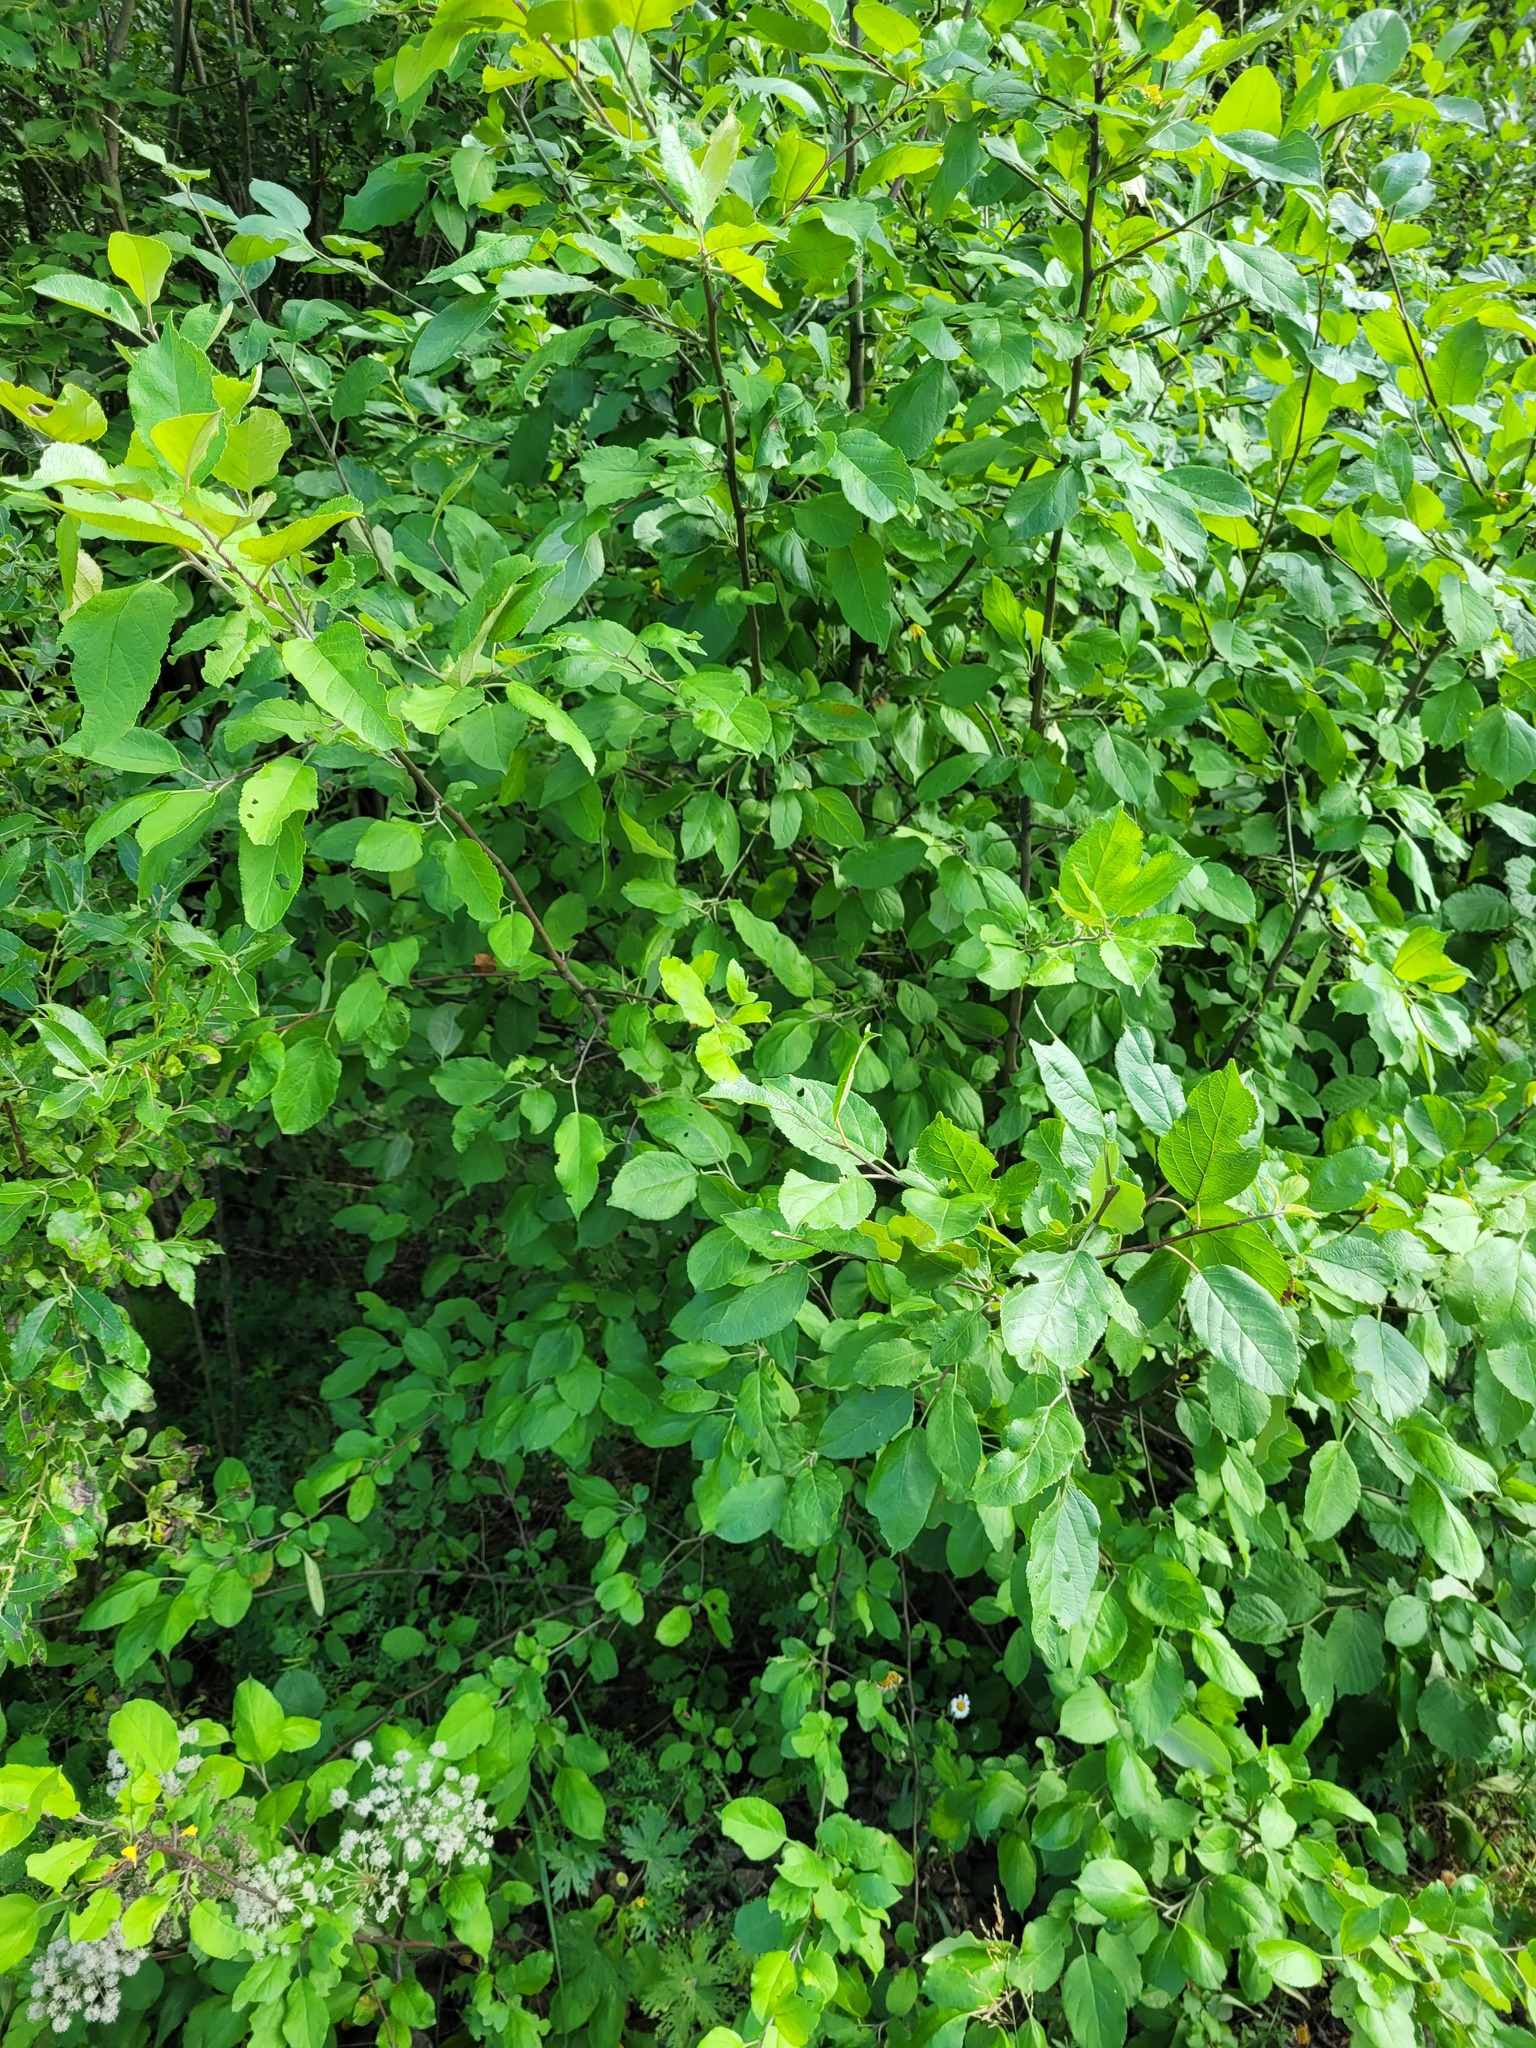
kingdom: Plantae
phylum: Tracheophyta
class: Magnoliopsida
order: Rosales
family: Rosaceae
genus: Malus
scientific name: Malus domestica
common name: Apple
